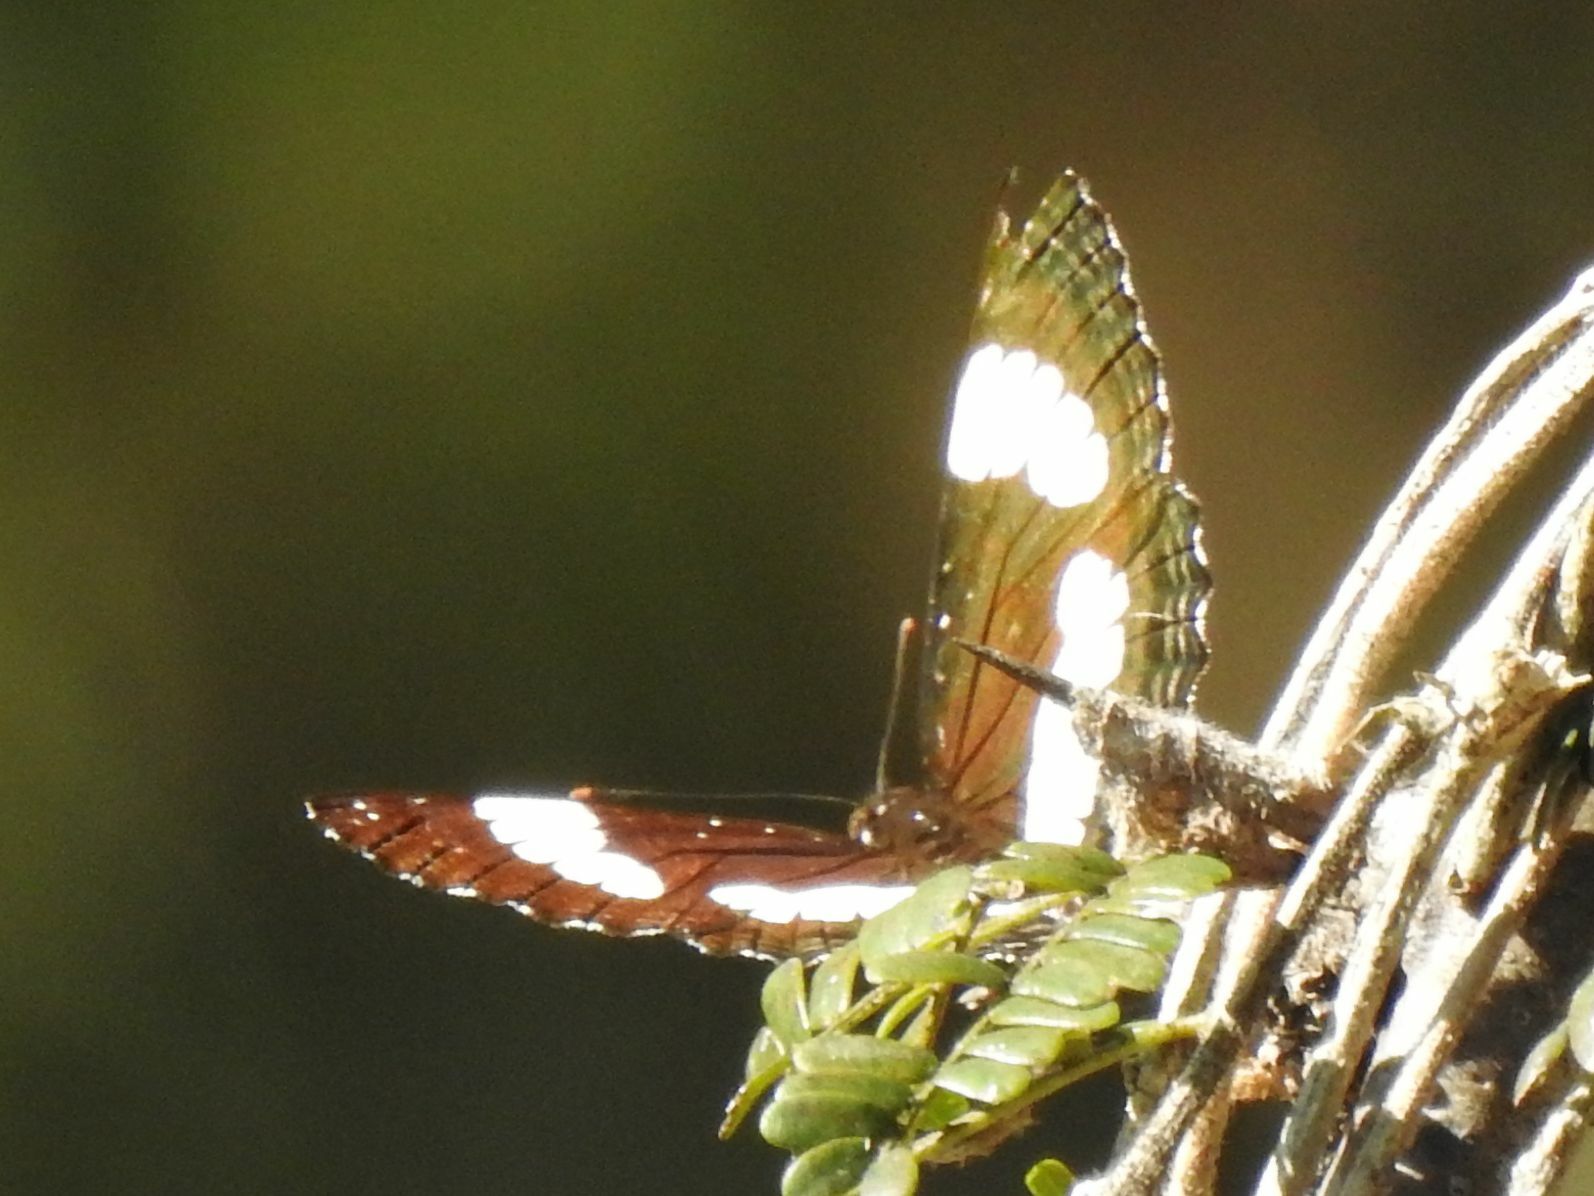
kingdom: Animalia
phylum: Arthropoda
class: Insecta
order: Lepidoptera
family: Nymphalidae
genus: Neptis
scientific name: Neptis laeta
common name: Common barred sailor
